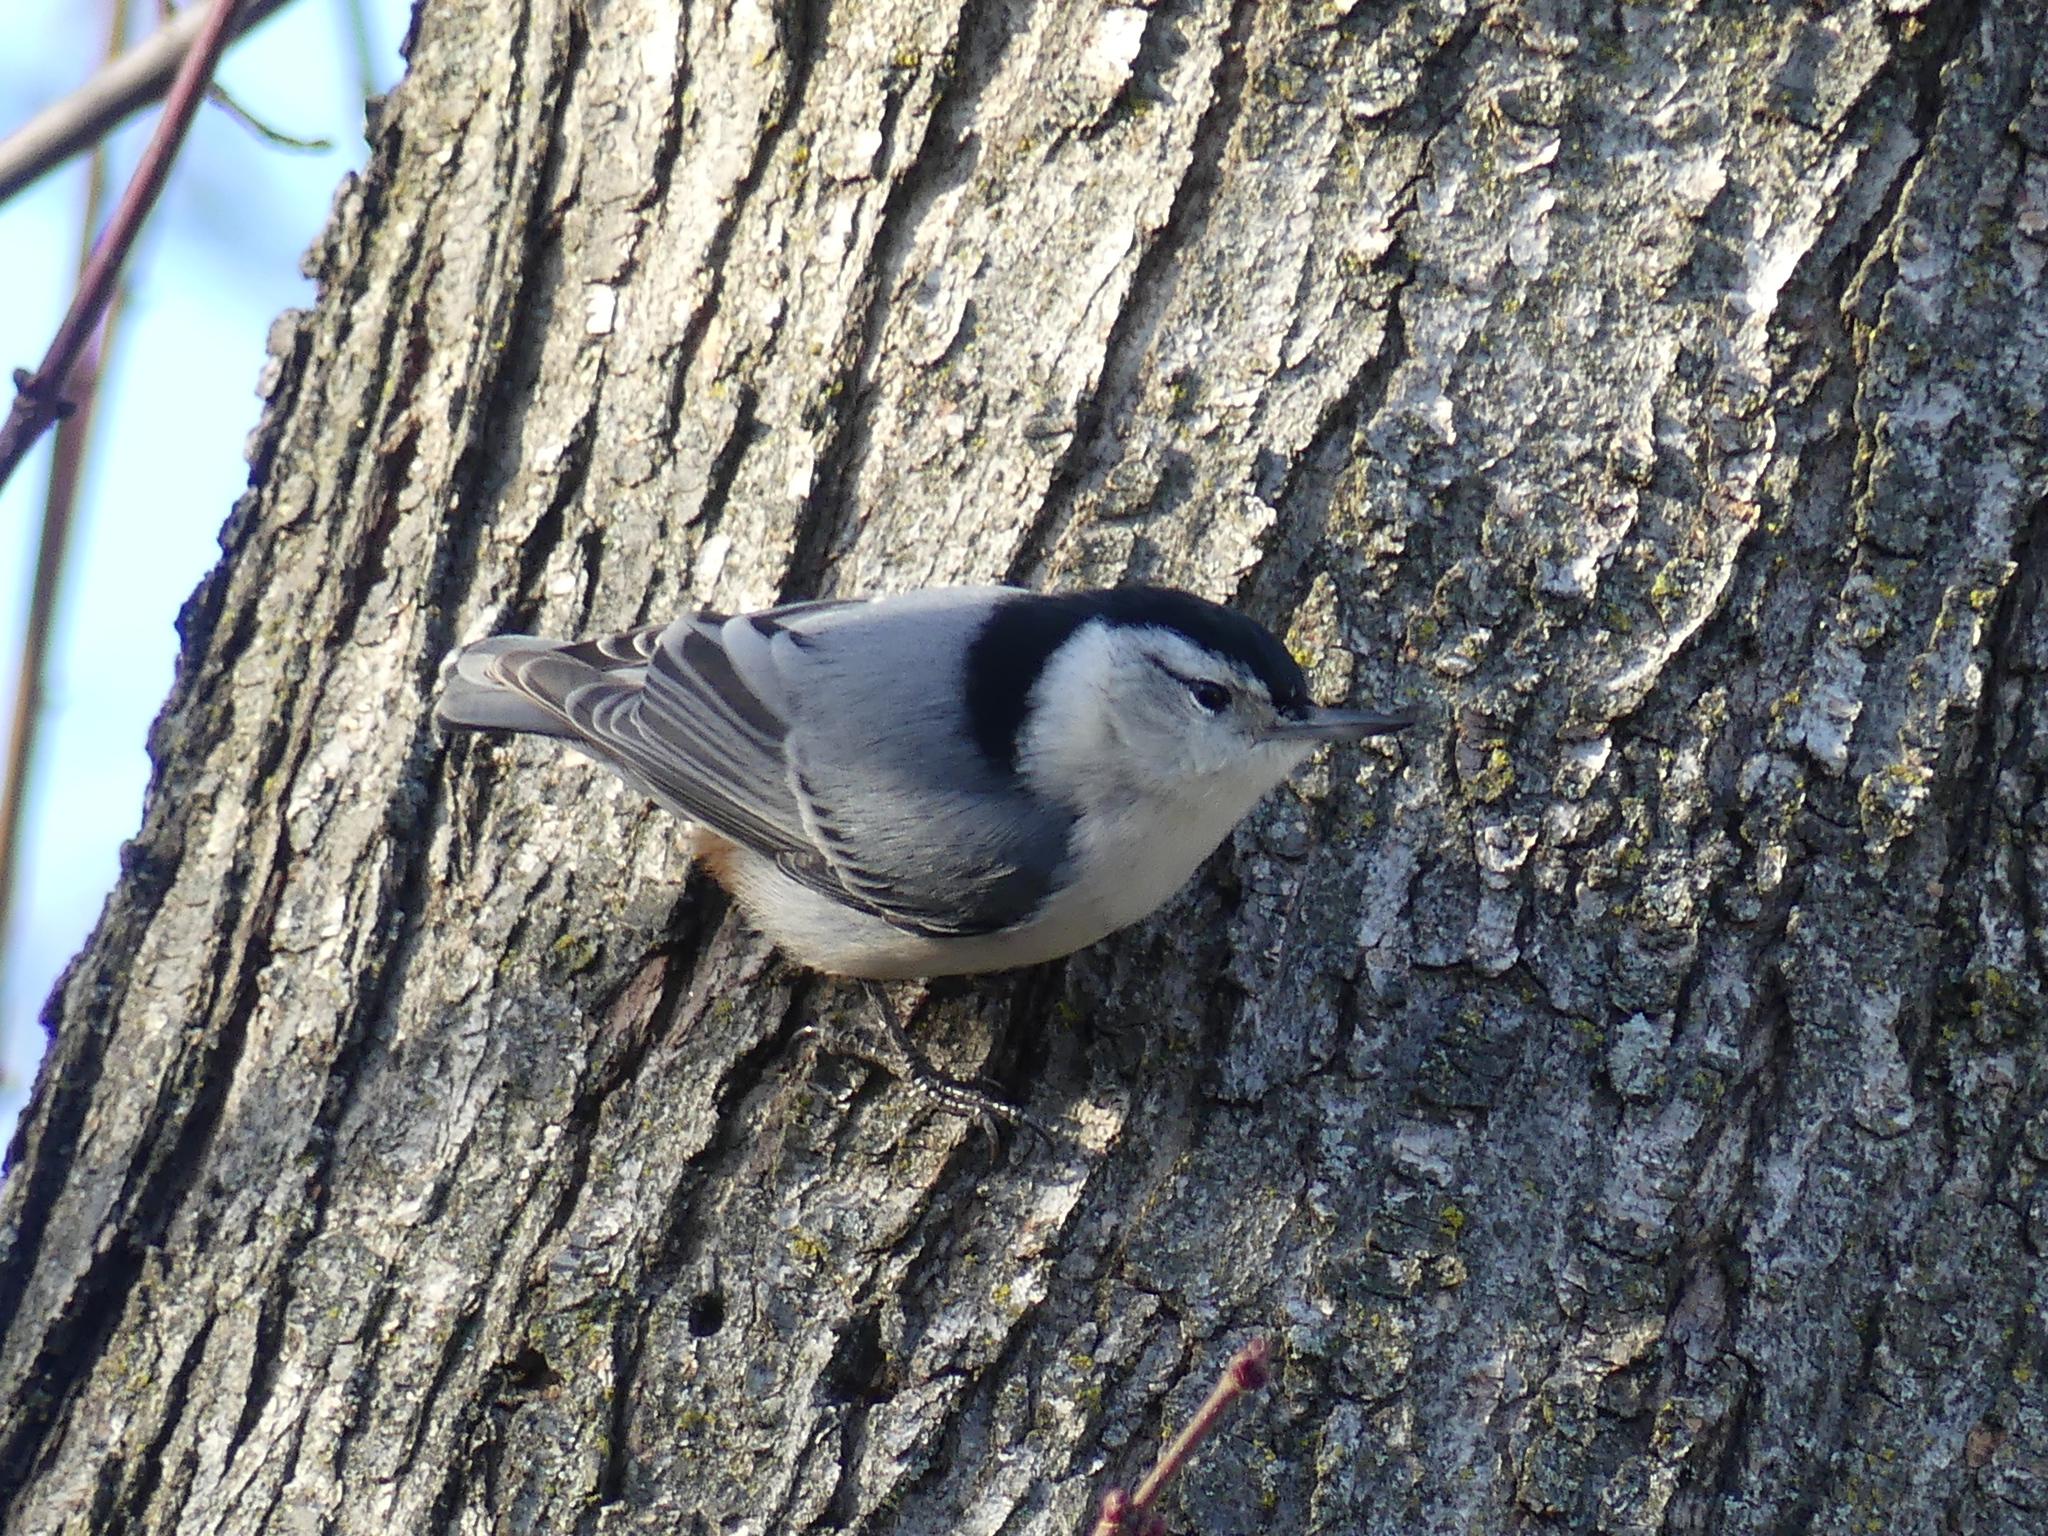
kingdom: Animalia
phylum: Chordata
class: Aves
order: Passeriformes
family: Sittidae
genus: Sitta
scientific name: Sitta carolinensis
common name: White-breasted nuthatch
